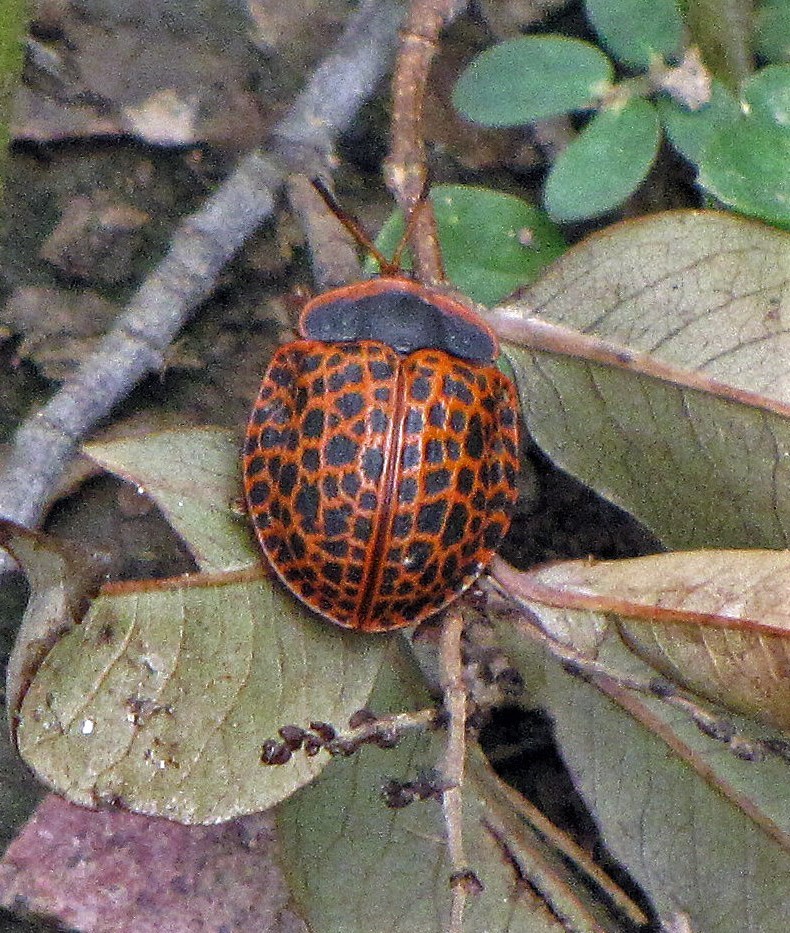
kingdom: Animalia
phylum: Arthropoda
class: Insecta
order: Coleoptera
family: Chrysomelidae
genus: Botanochara
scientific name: Botanochara macularia
